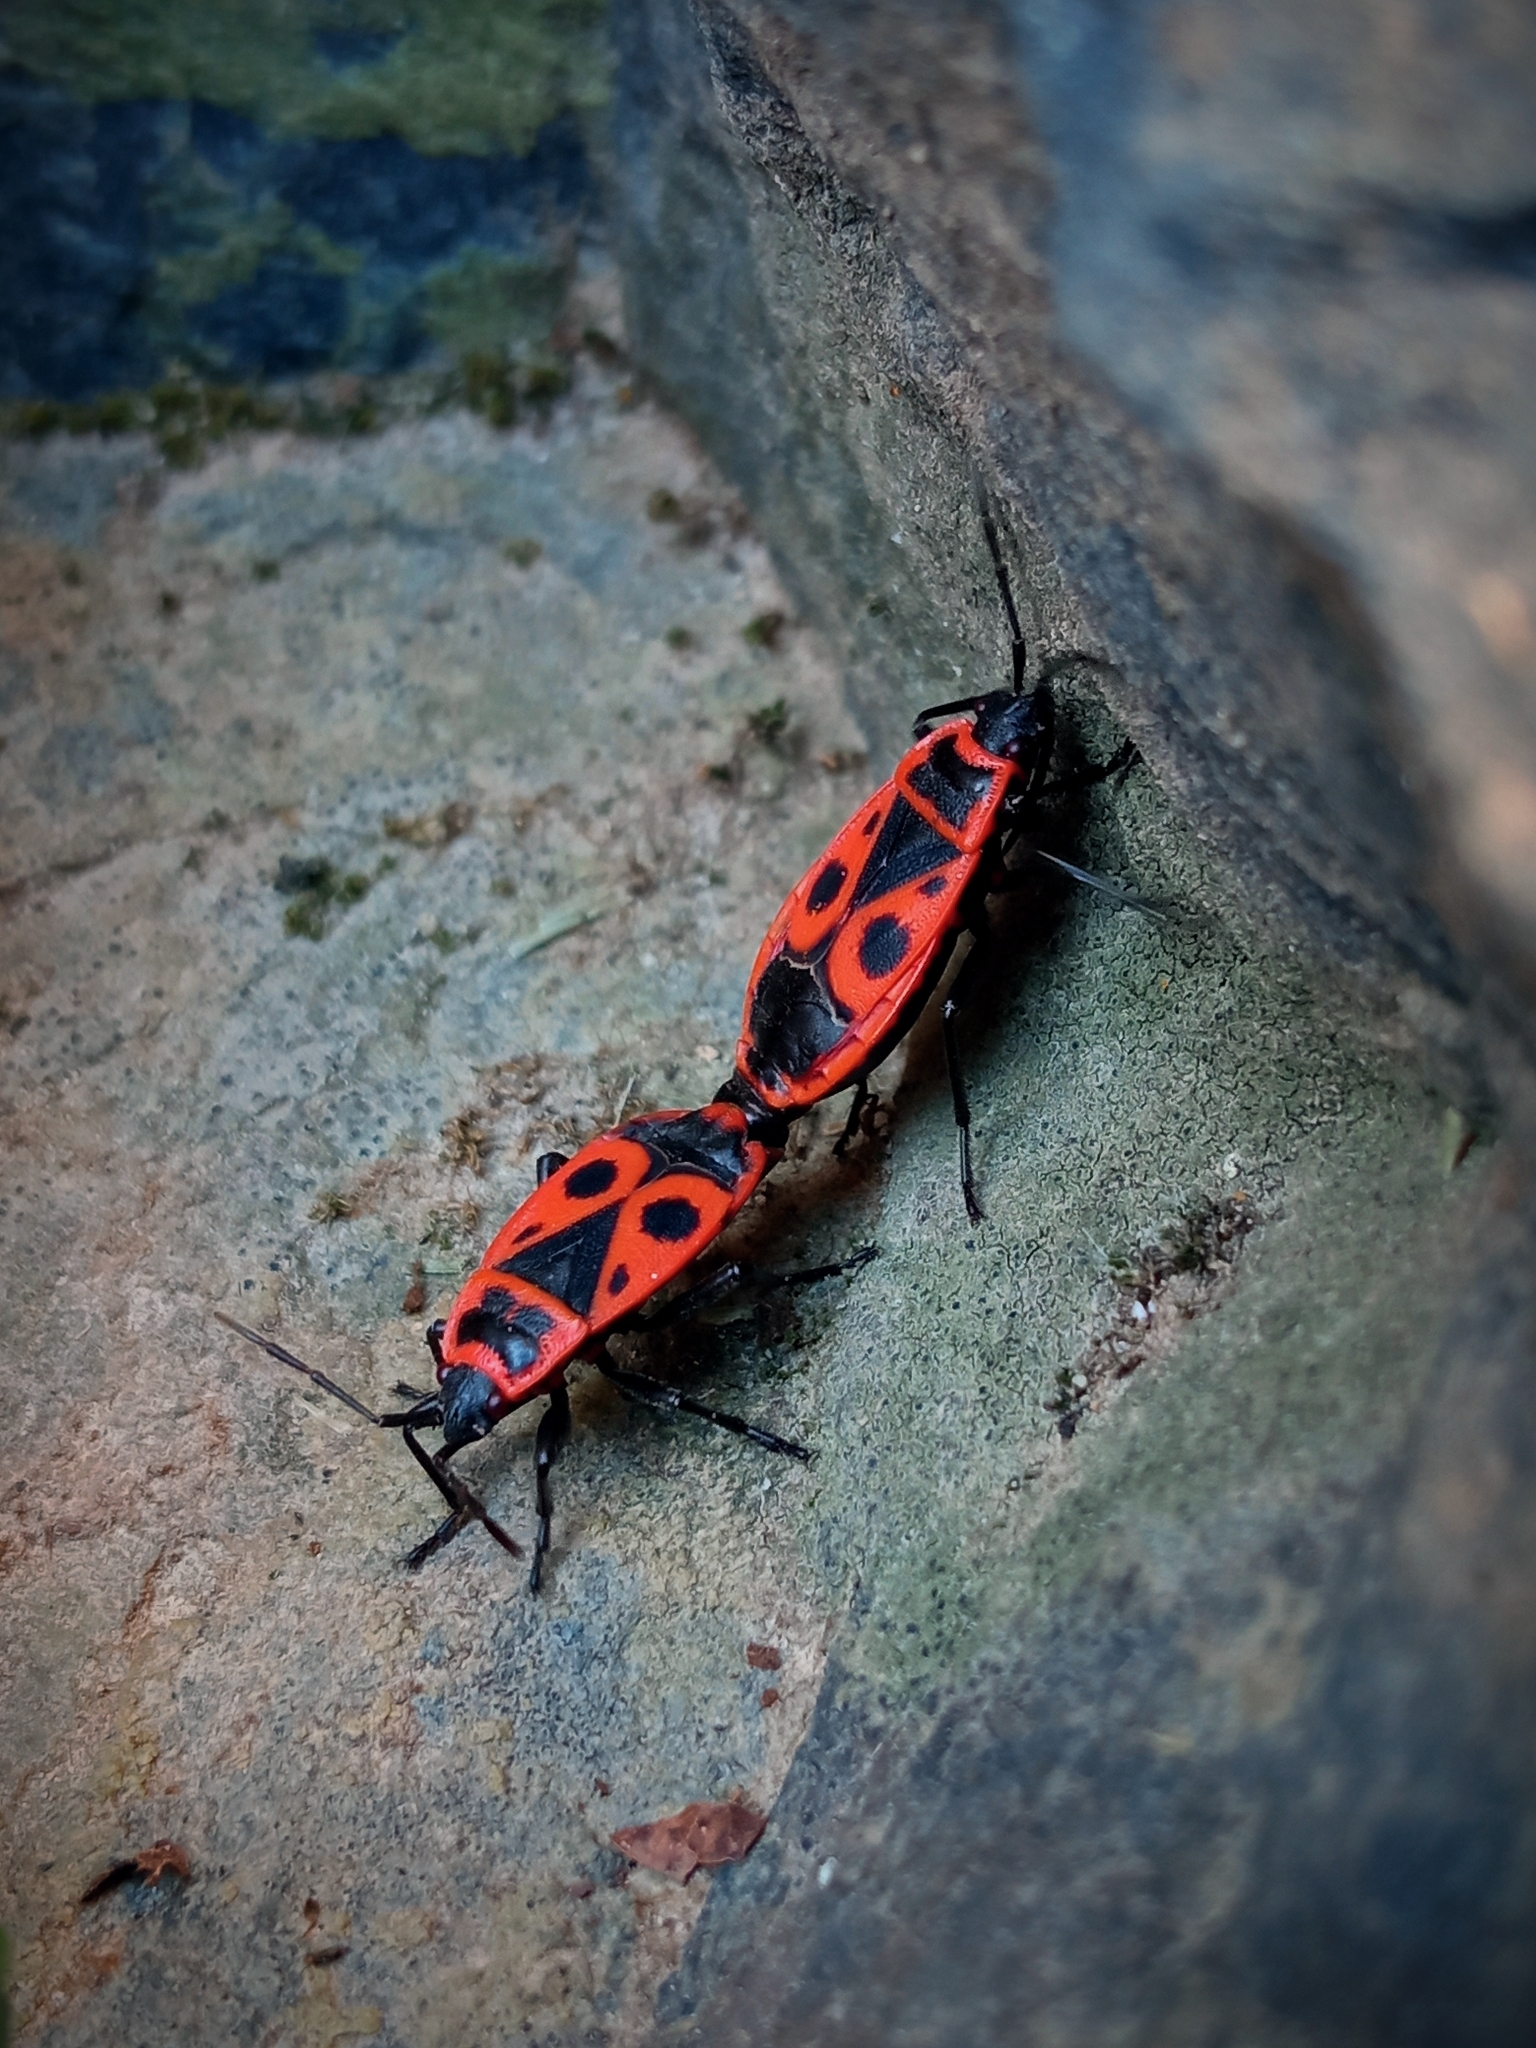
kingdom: Animalia
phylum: Arthropoda
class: Insecta
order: Hemiptera
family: Pyrrhocoridae
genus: Pyrrhocoris
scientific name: Pyrrhocoris apterus
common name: Firebug
